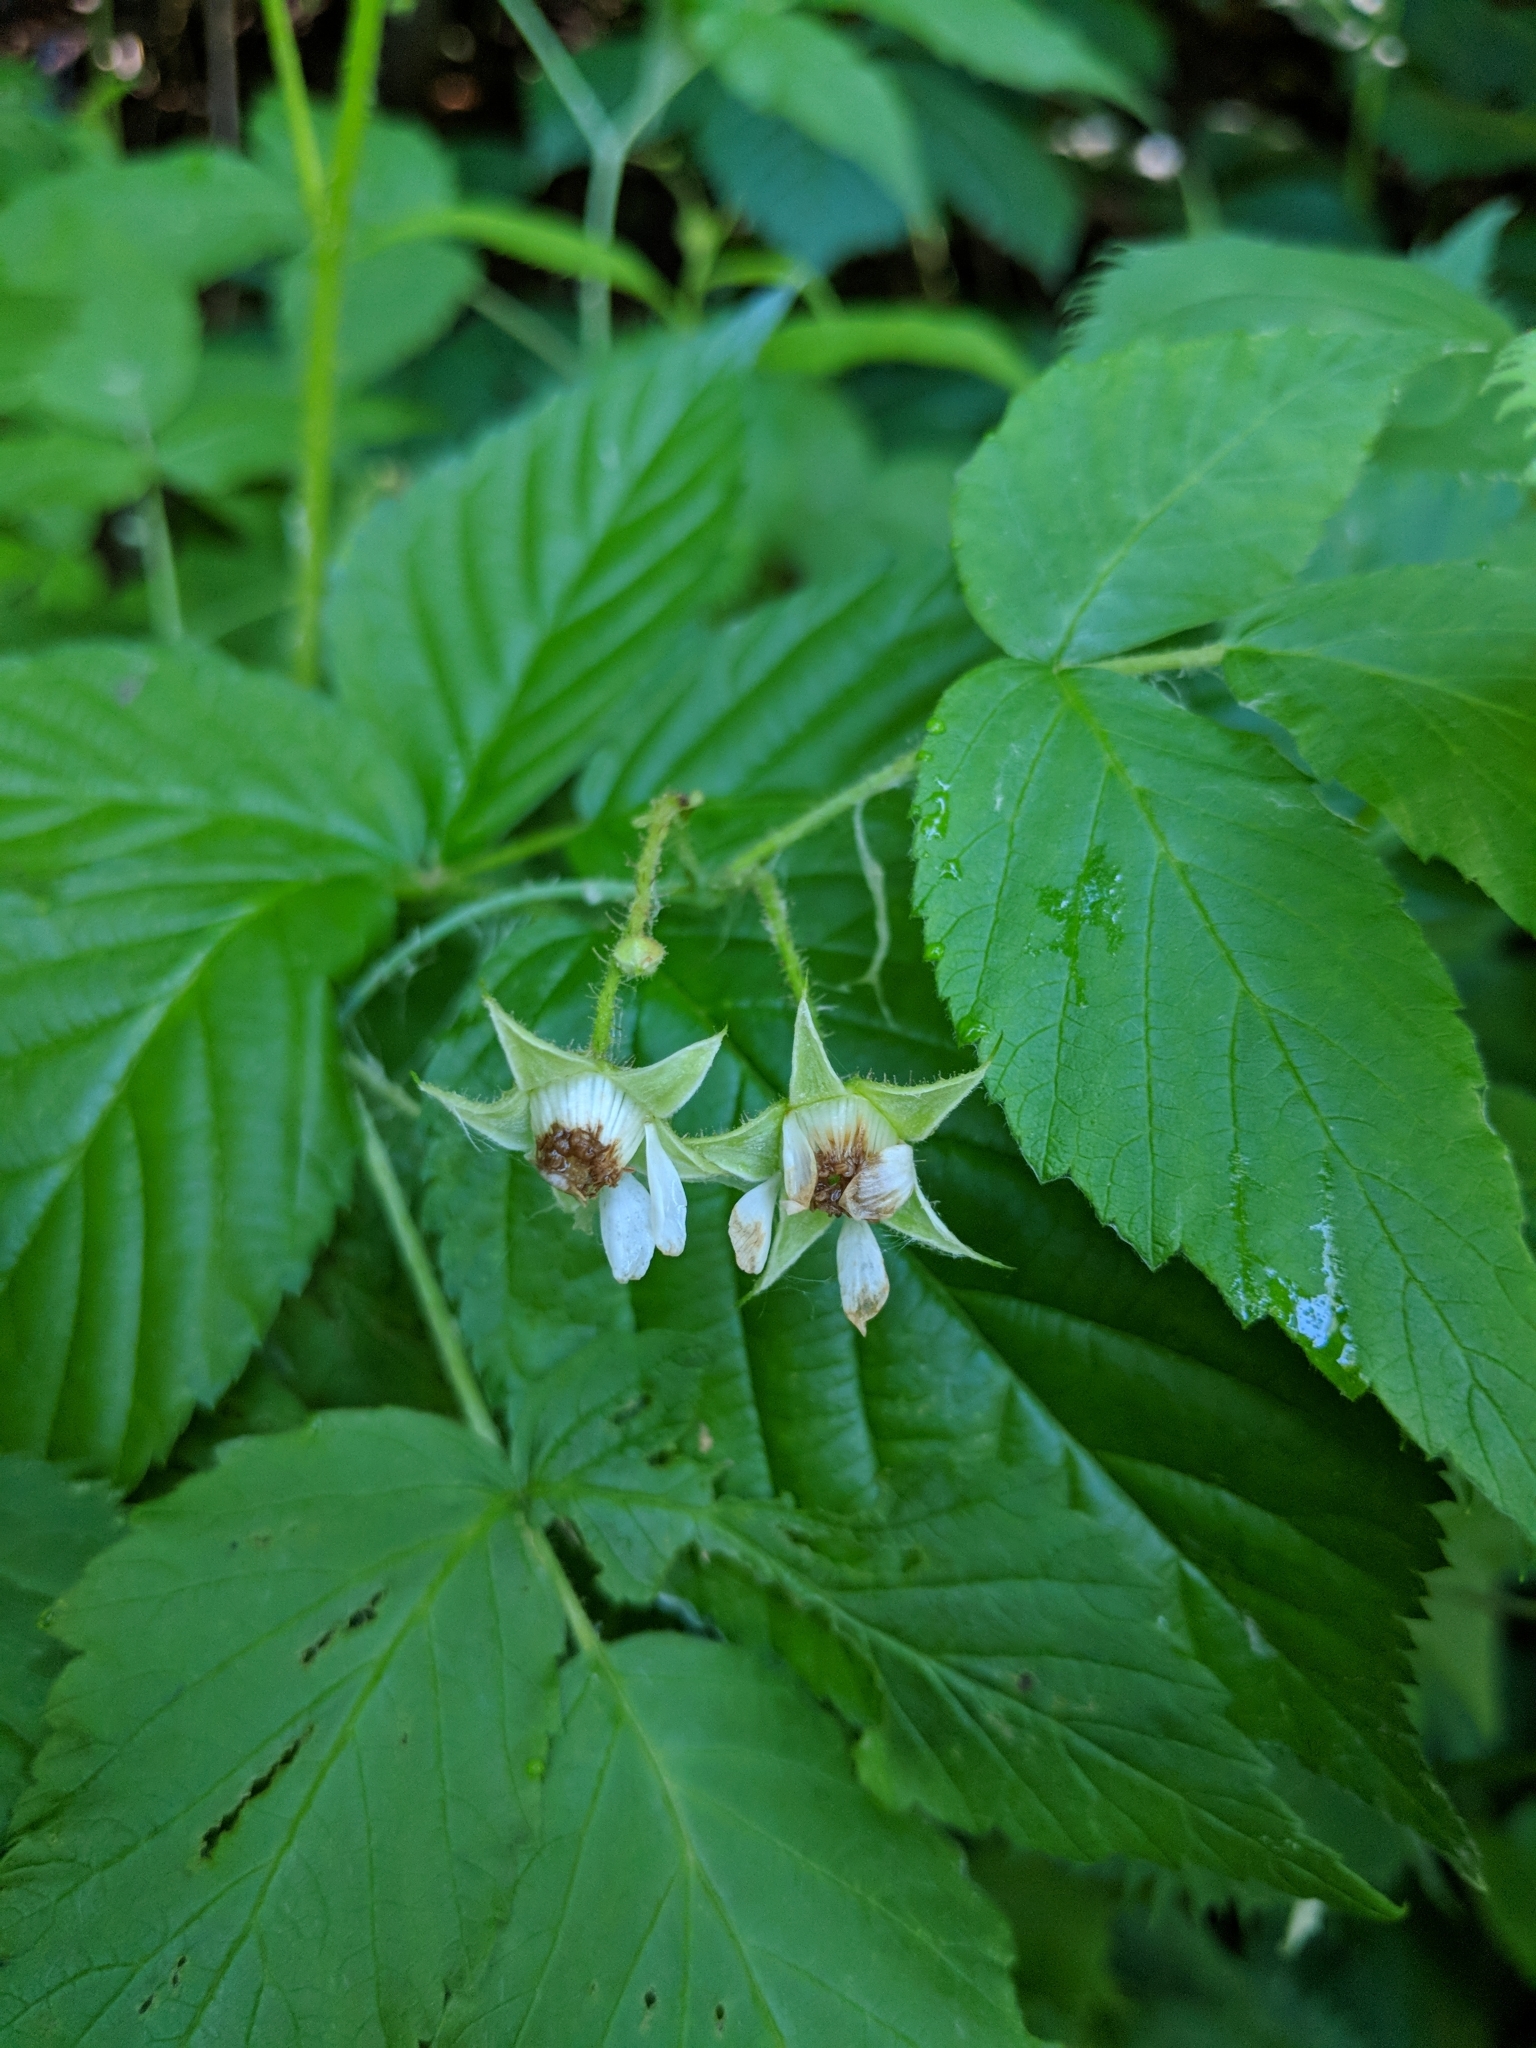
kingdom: Plantae
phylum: Tracheophyta
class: Magnoliopsida
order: Rosales
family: Rosaceae
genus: Rubus
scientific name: Rubus idaeus
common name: Raspberry
